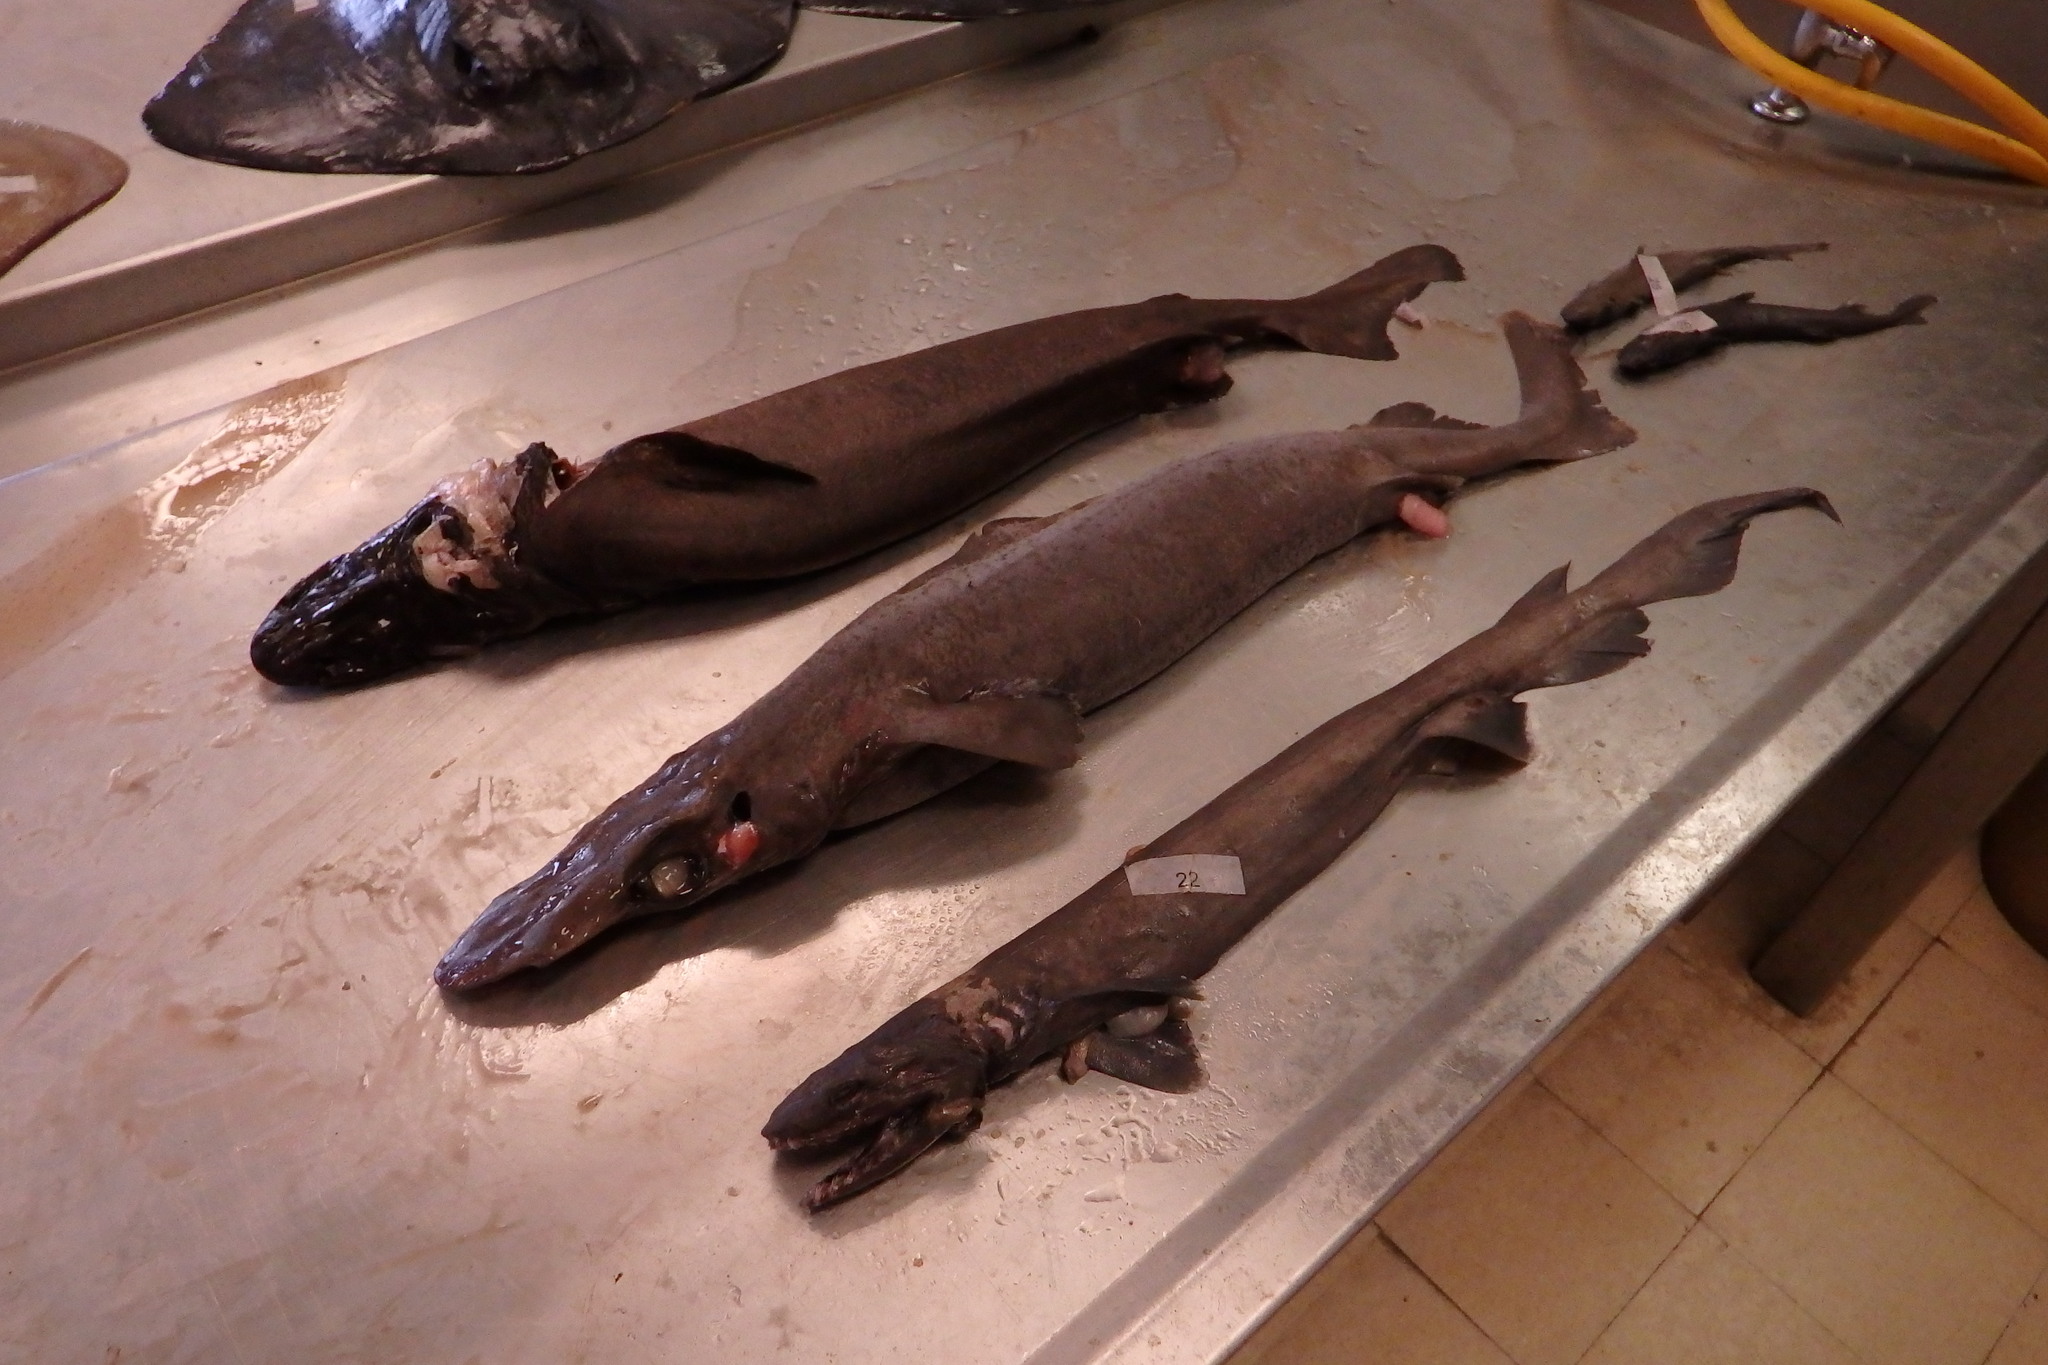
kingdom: Animalia
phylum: Chordata
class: Elasmobranchii
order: Squaliformes
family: Somniosidae
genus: Centroscymnus
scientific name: Centroscymnus crepidater
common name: Longnose velvet dogfish
